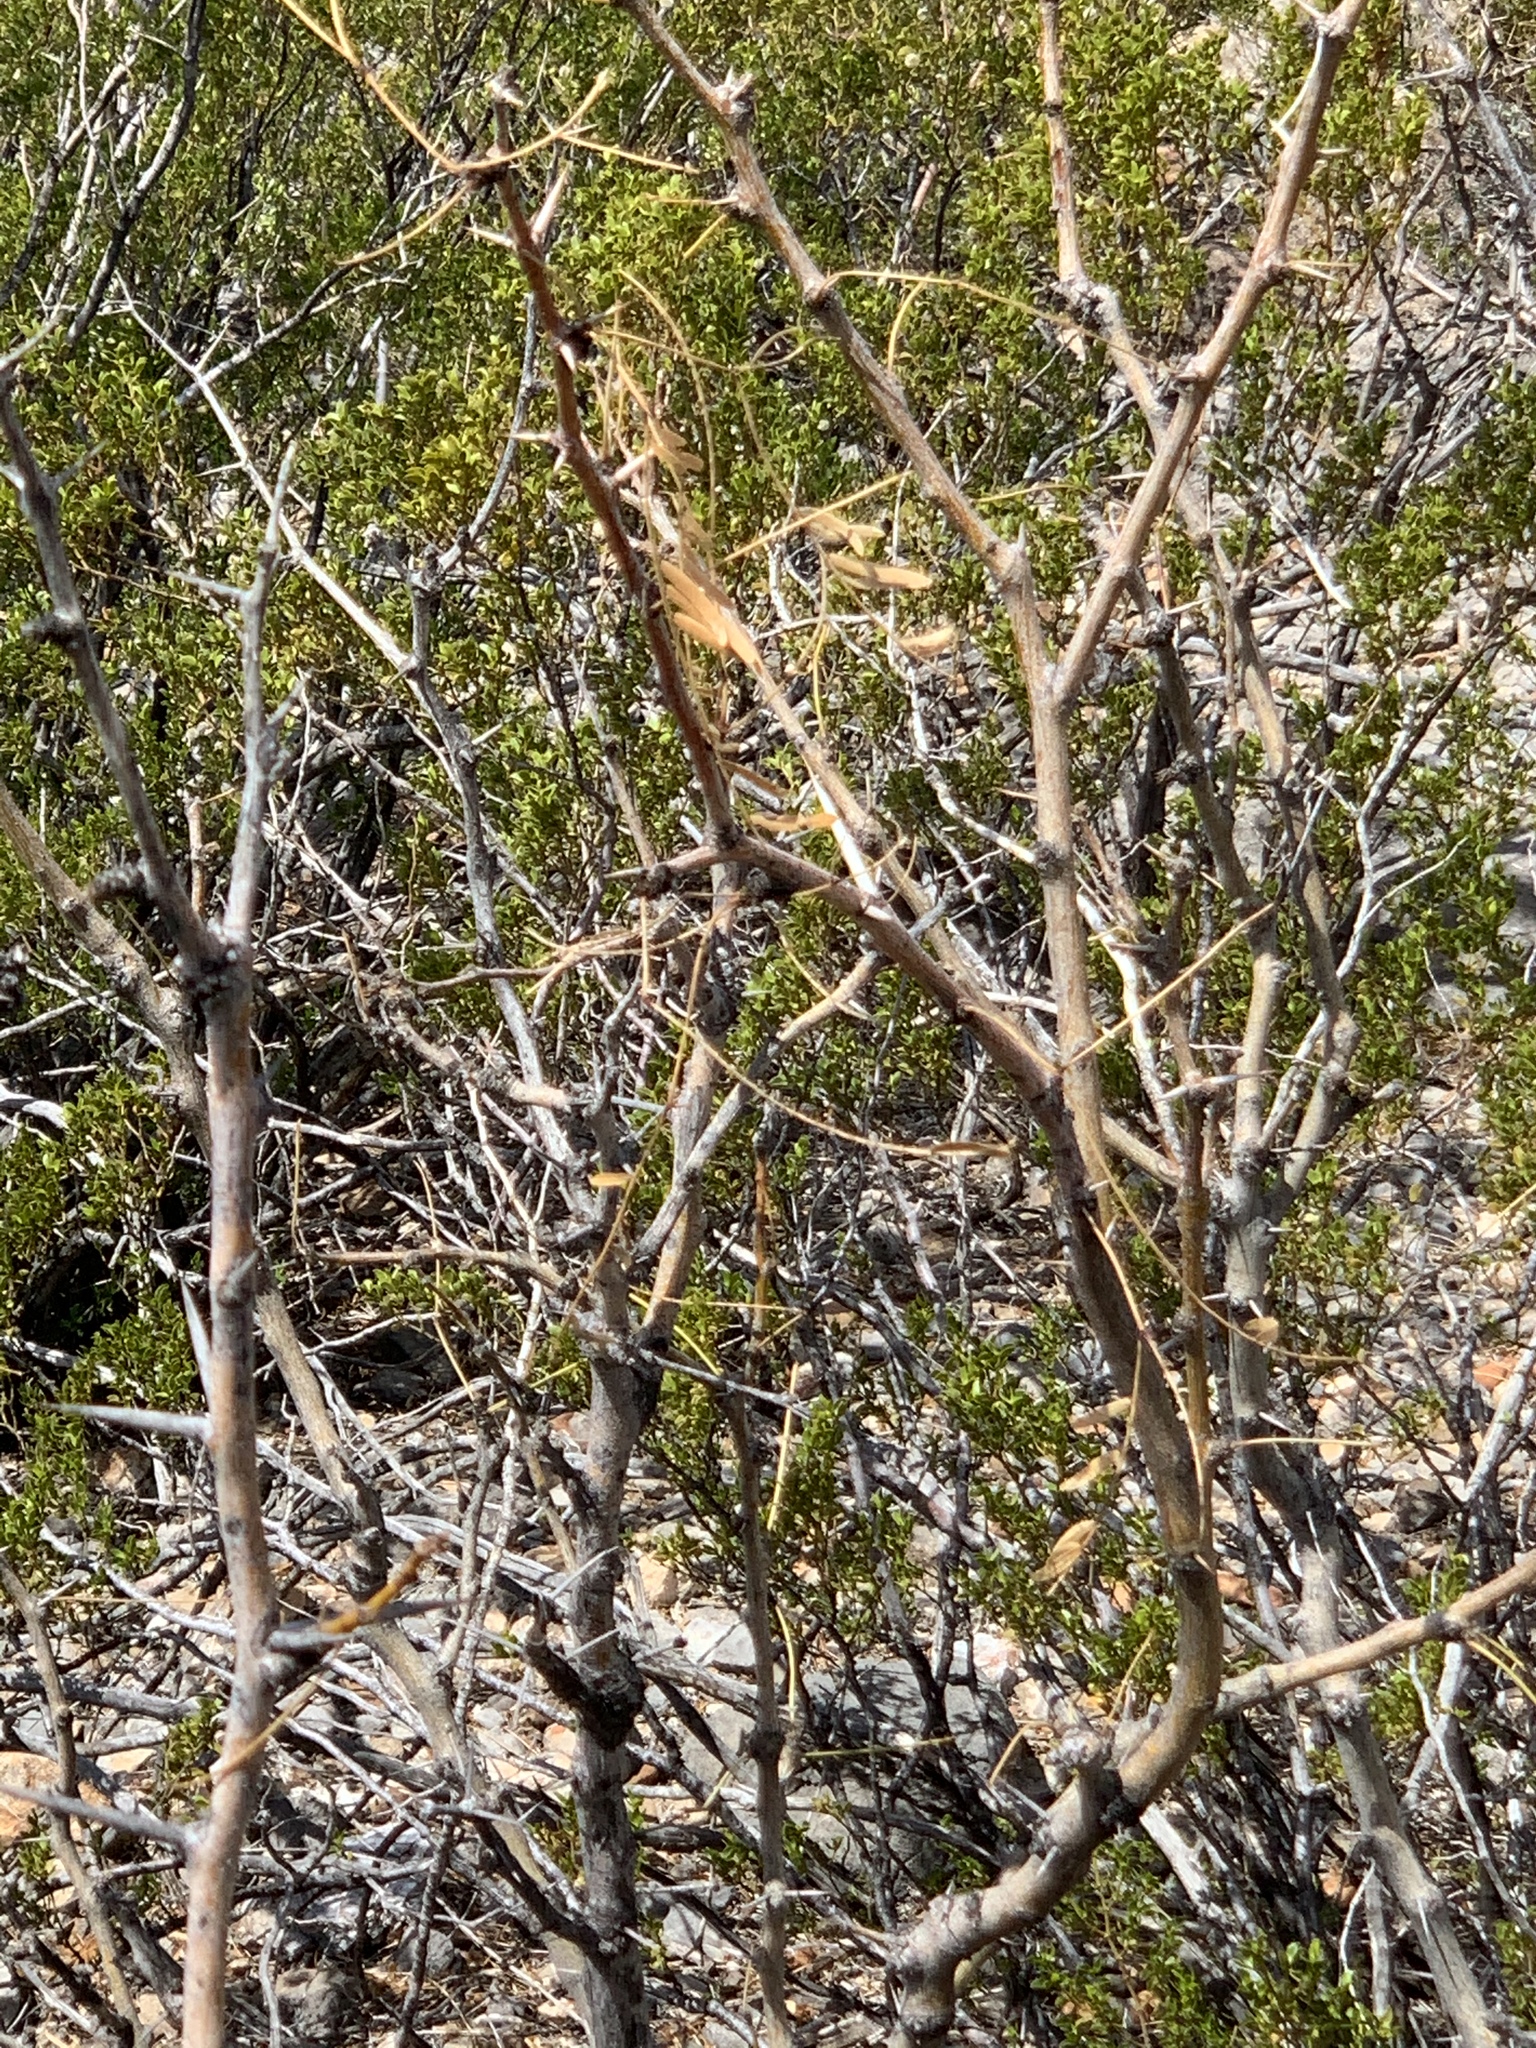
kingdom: Plantae
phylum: Tracheophyta
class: Magnoliopsida
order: Fabales
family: Fabaceae
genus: Prosopis
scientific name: Prosopis glandulosa
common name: Honey mesquite
